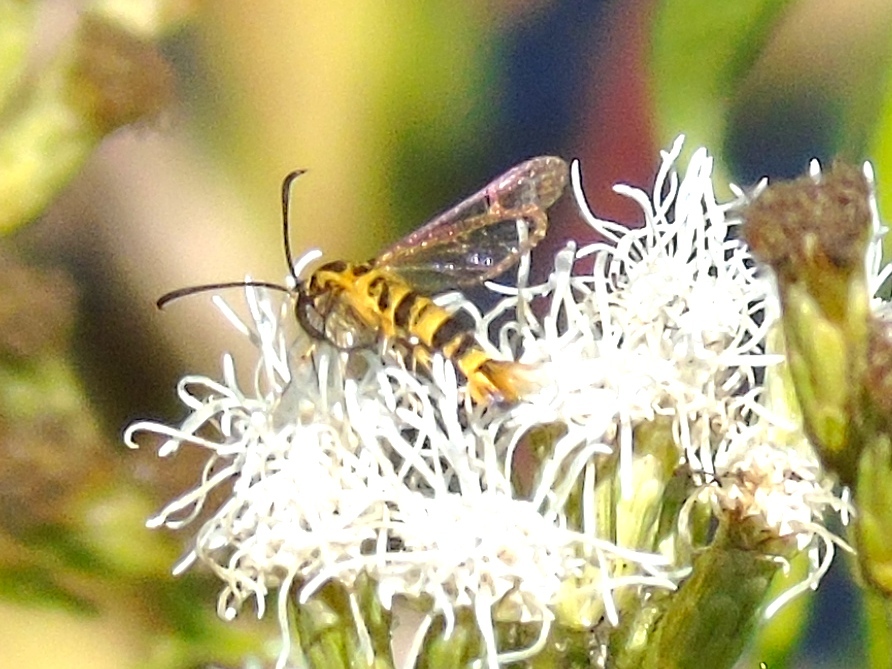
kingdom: Animalia
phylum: Arthropoda
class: Insecta
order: Lepidoptera
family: Sesiidae
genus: Carmenta
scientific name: Carmenta
